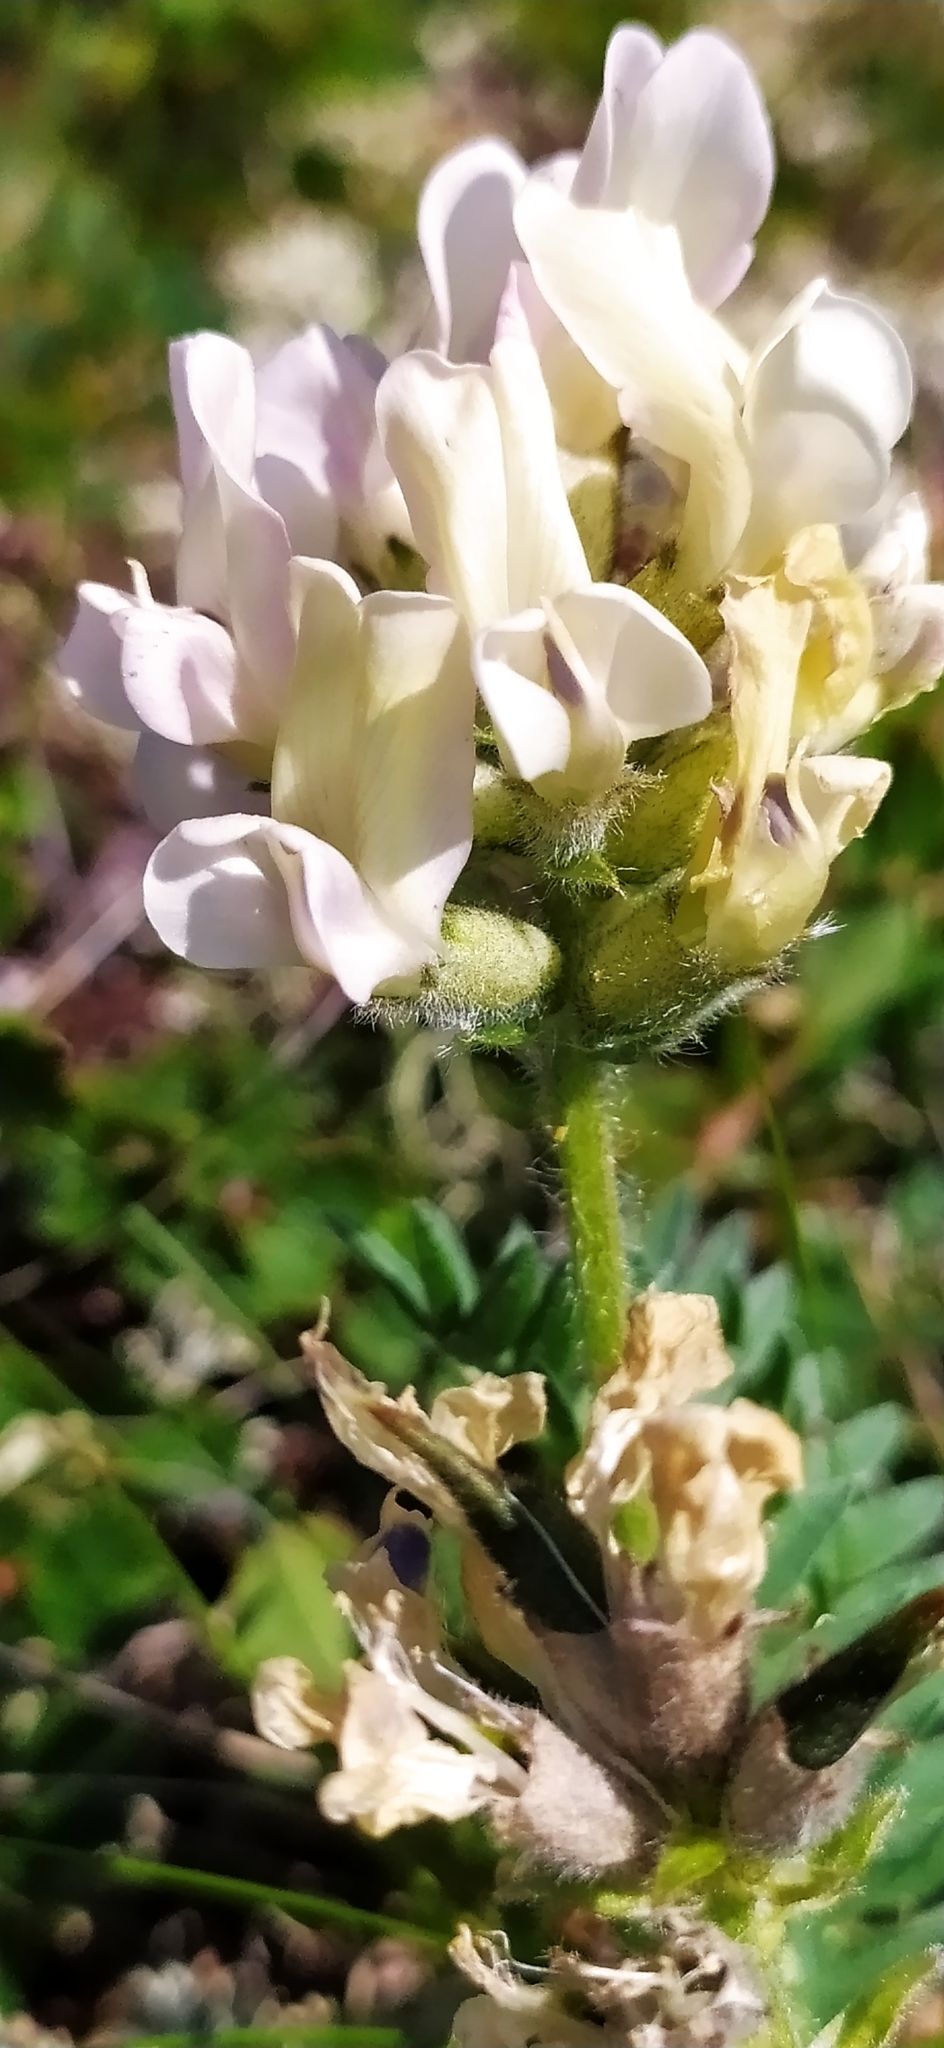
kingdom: Plantae
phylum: Tracheophyta
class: Magnoliopsida
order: Fabales
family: Fabaceae
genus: Oxytropis
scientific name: Oxytropis sordida
